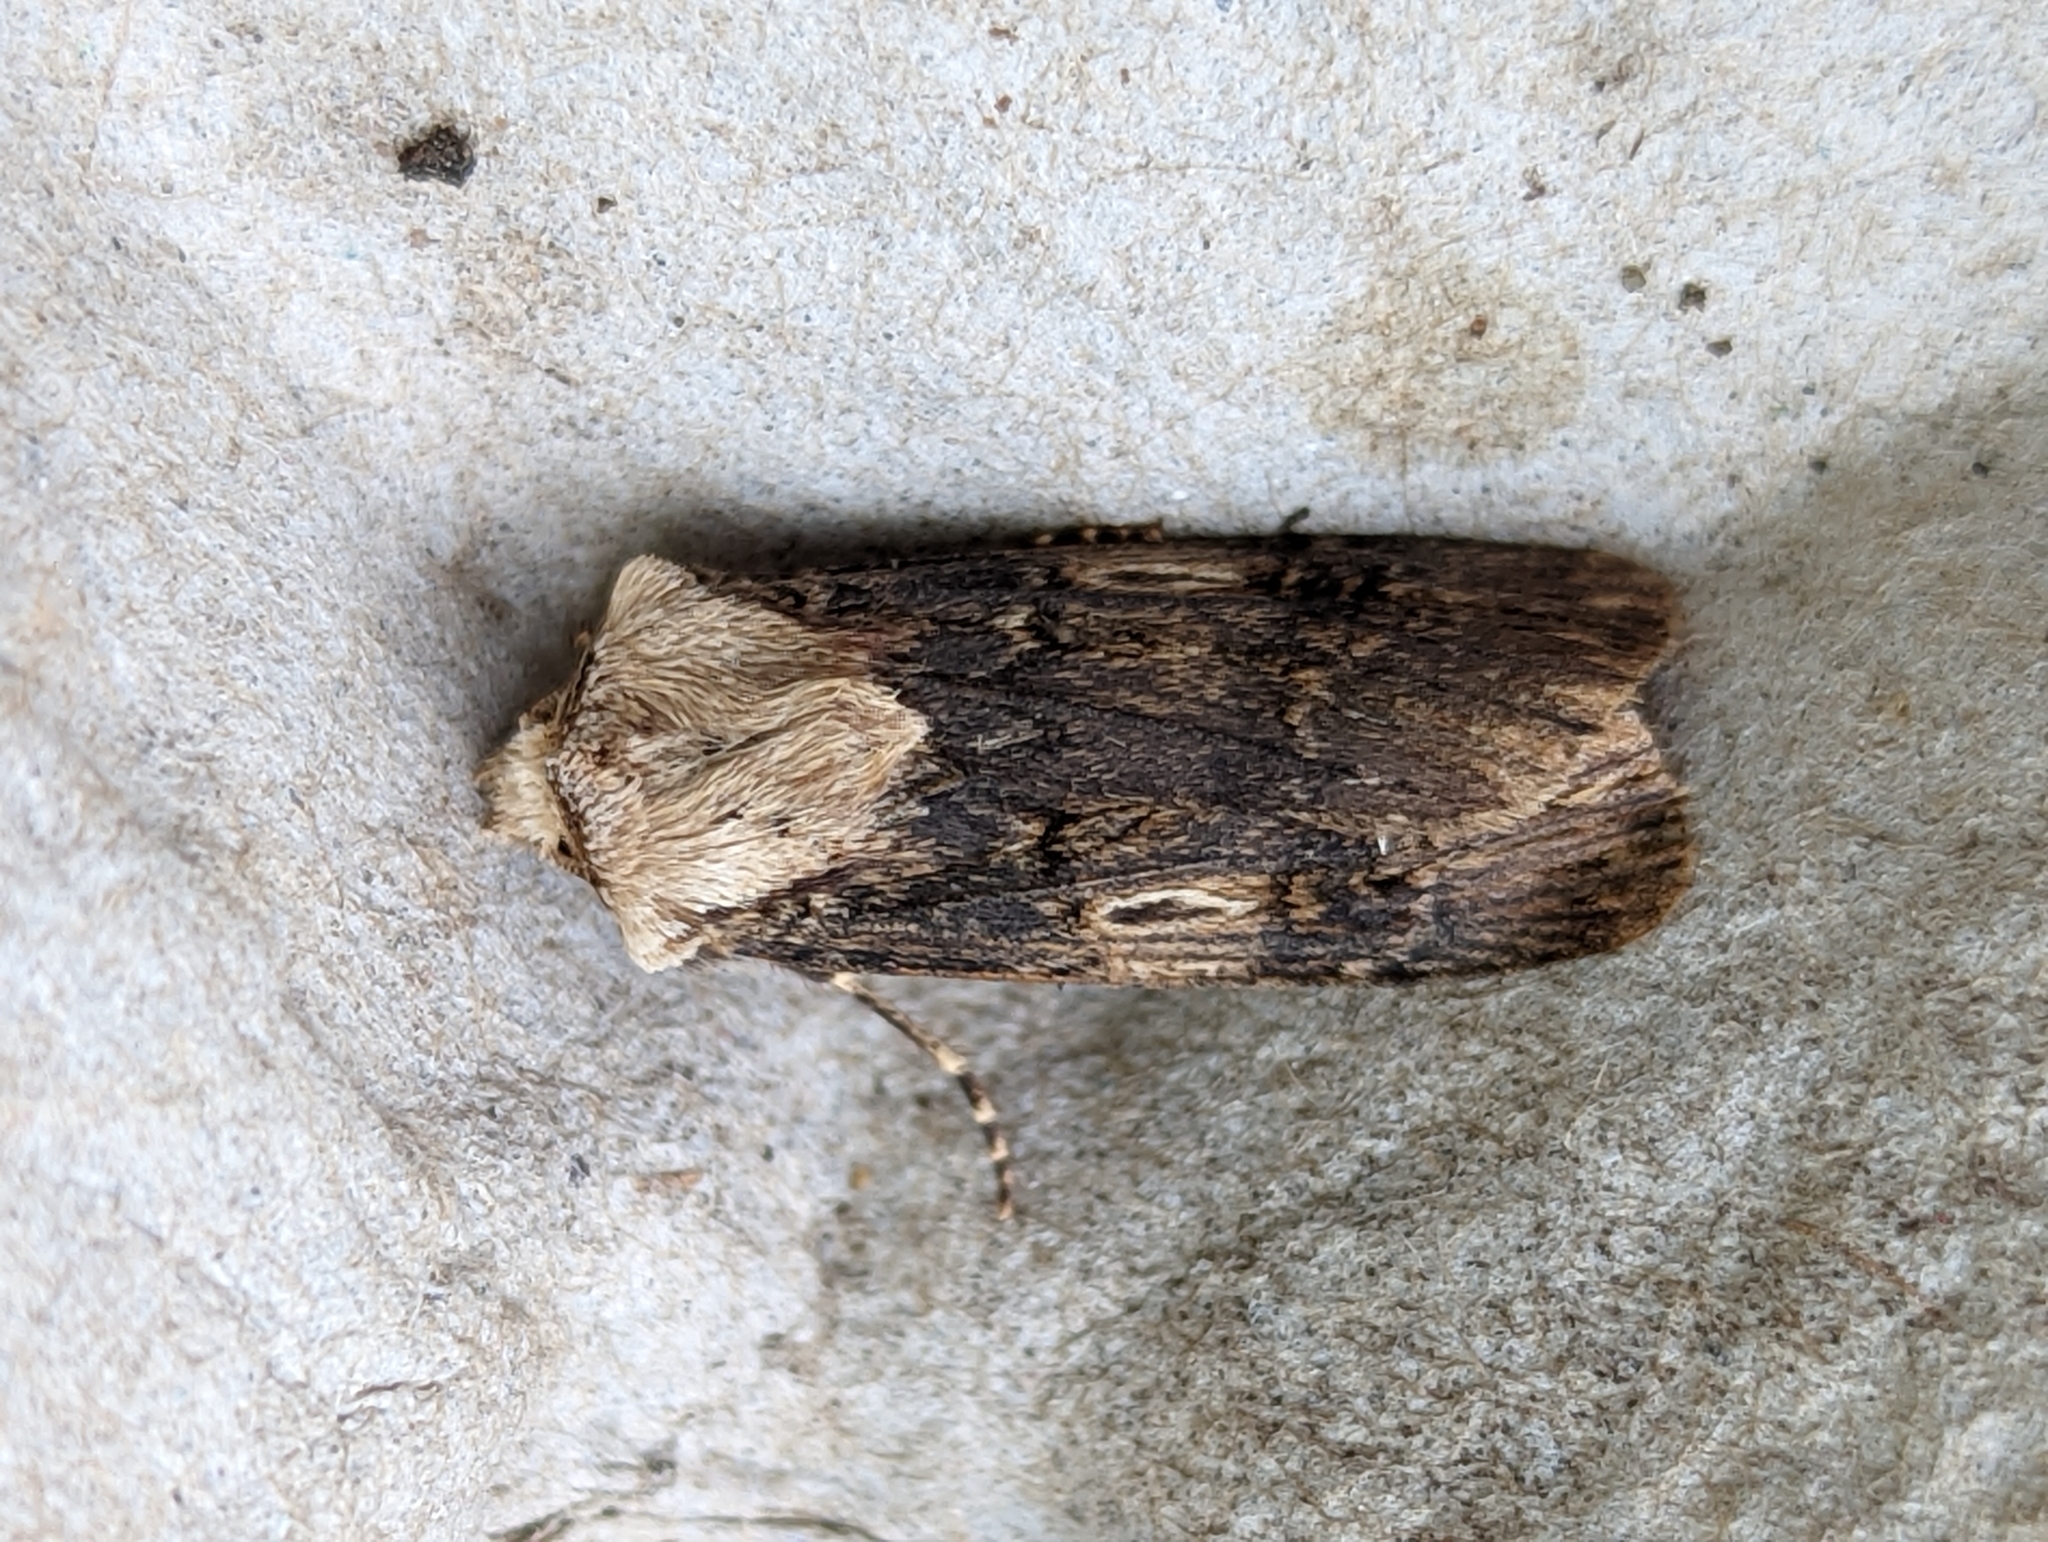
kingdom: Animalia
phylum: Arthropoda
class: Insecta
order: Lepidoptera
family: Noctuidae
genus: Agrotis
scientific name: Agrotis puta
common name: Shuttle-shaped dart
